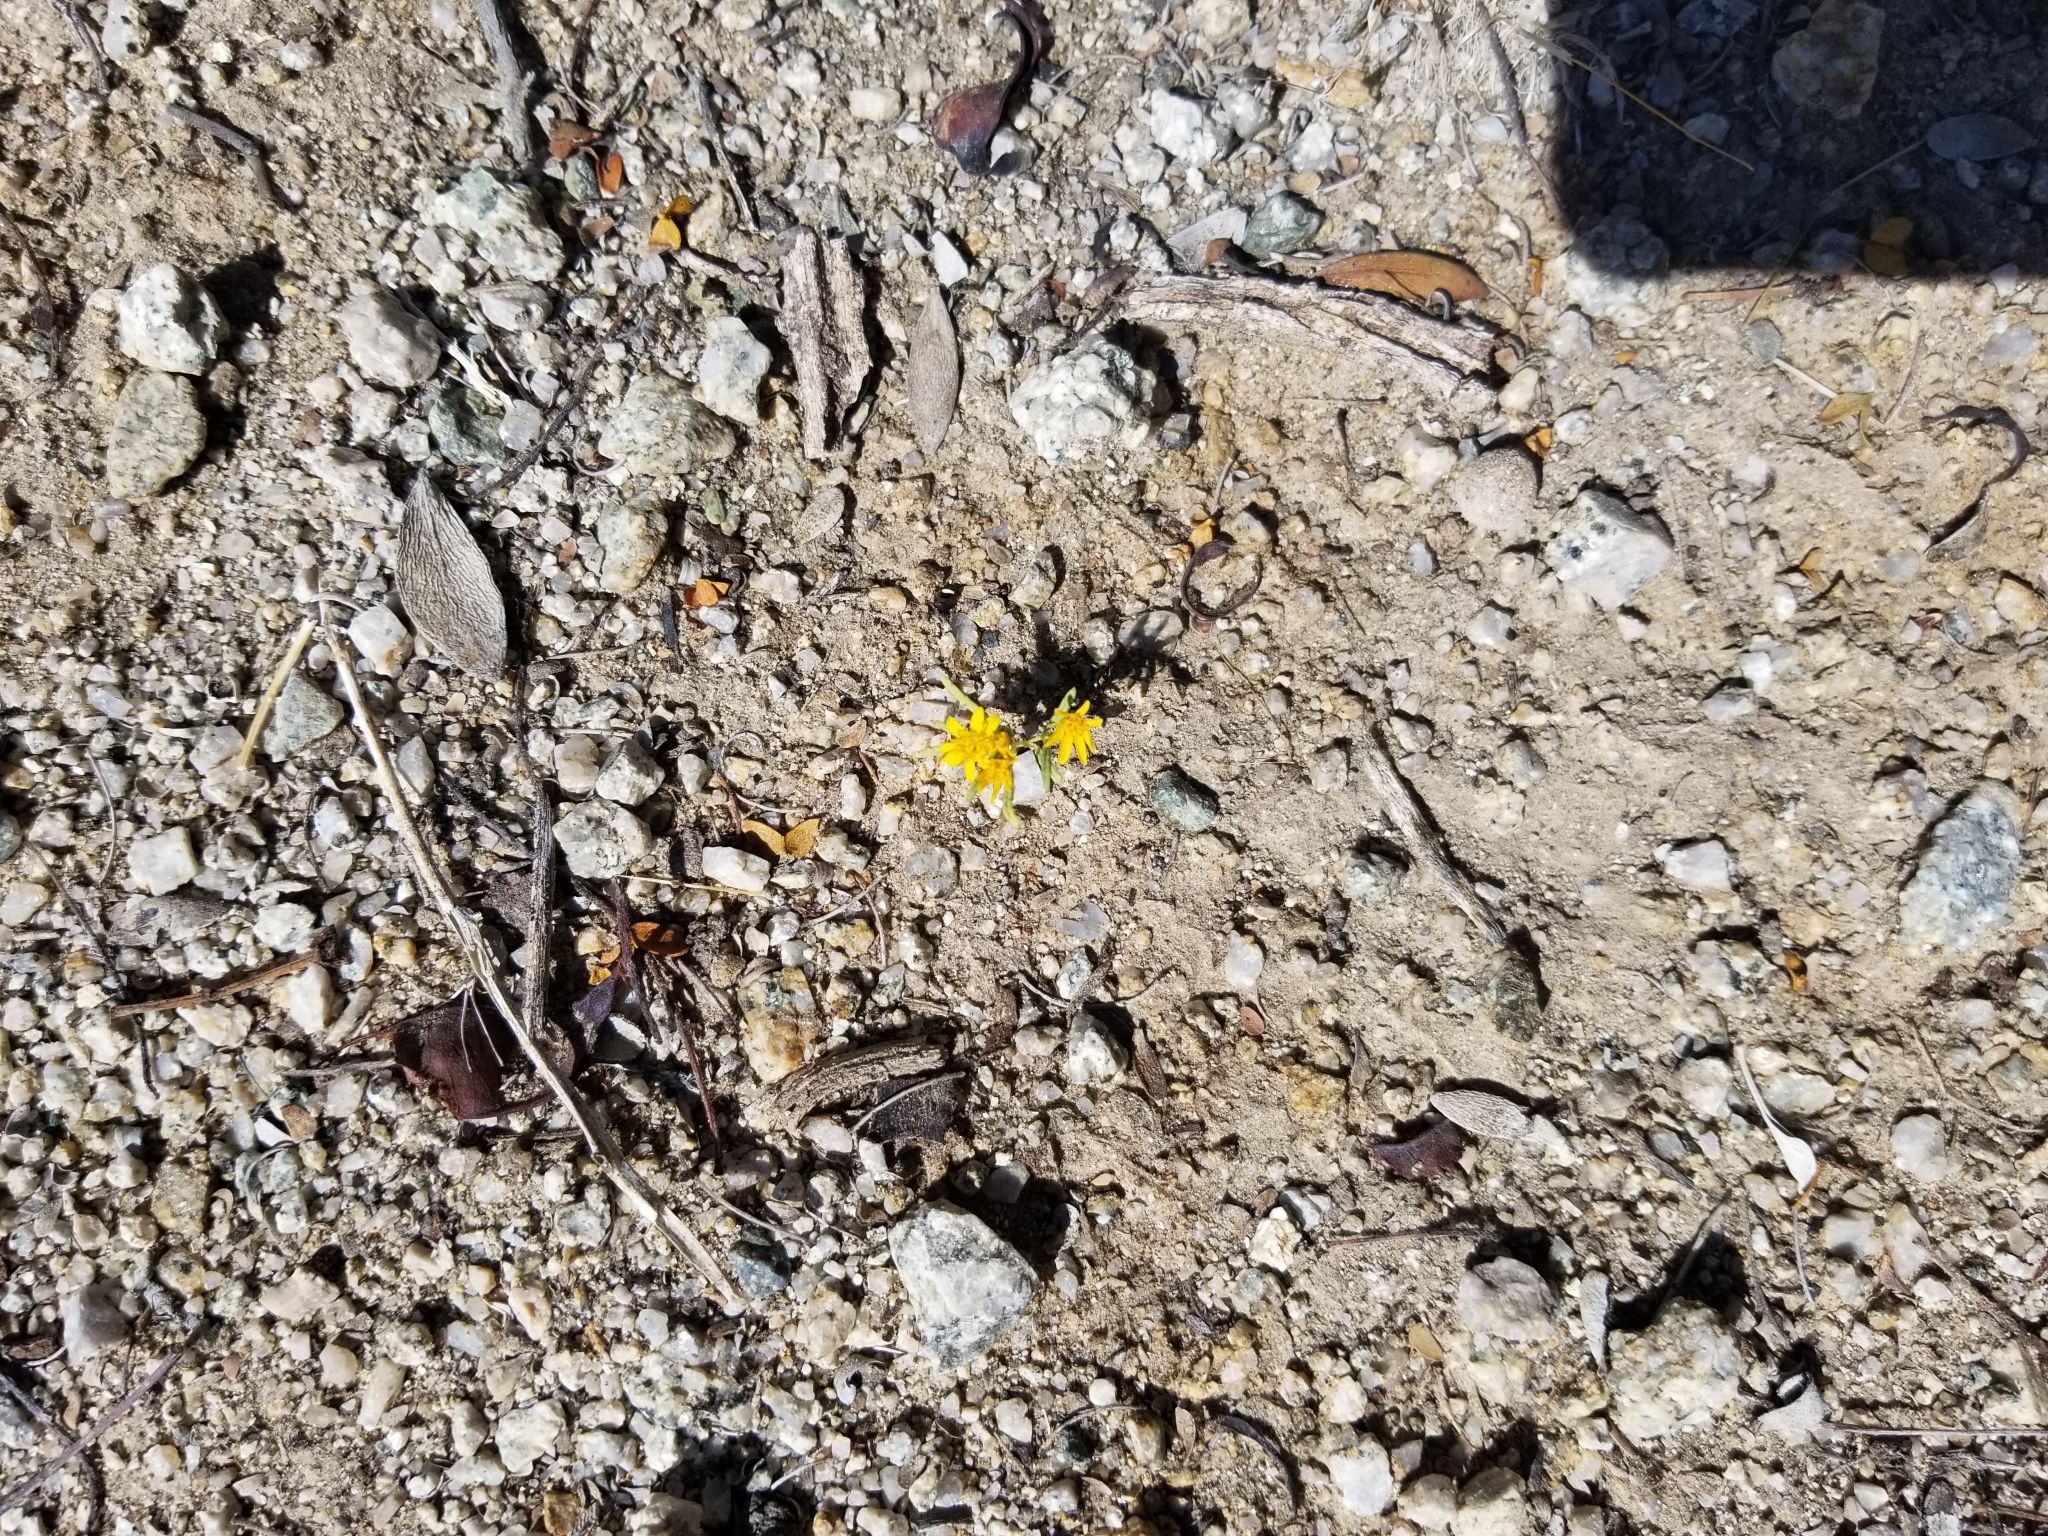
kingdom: Plantae
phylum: Tracheophyta
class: Magnoliopsida
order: Asterales
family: Asteraceae
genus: Pectis
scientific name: Pectis papposa
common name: Many-bristle chinchweed
